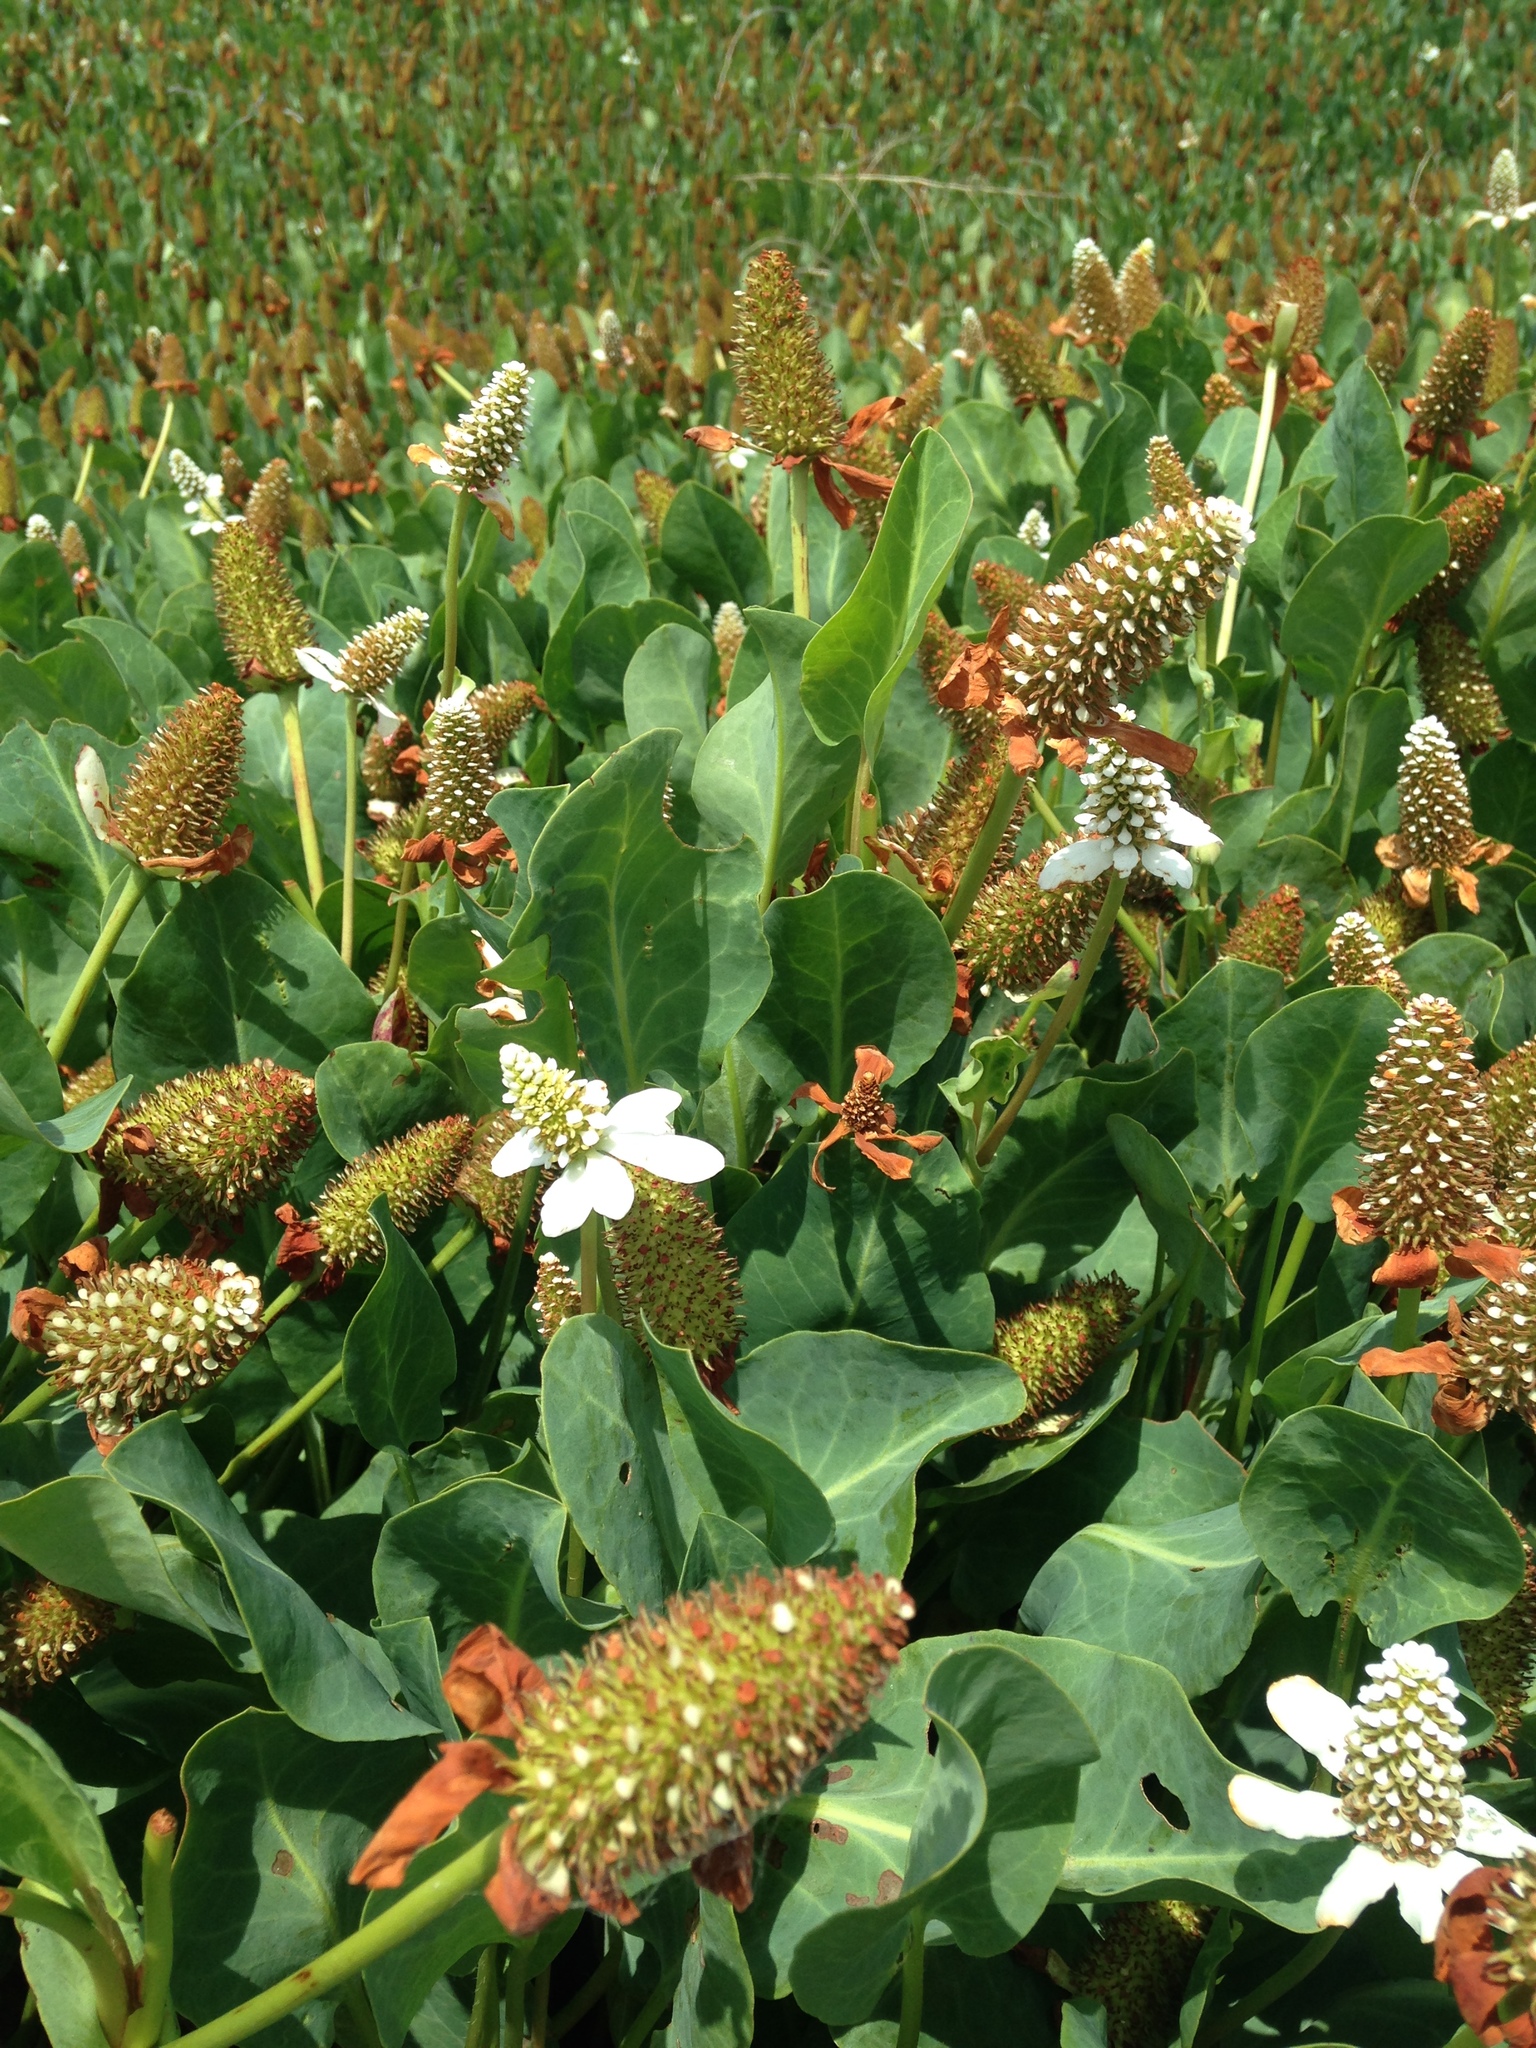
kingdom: Plantae
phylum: Tracheophyta
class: Magnoliopsida
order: Piperales
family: Saururaceae
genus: Anemopsis
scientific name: Anemopsis californica
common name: Apache-beads
